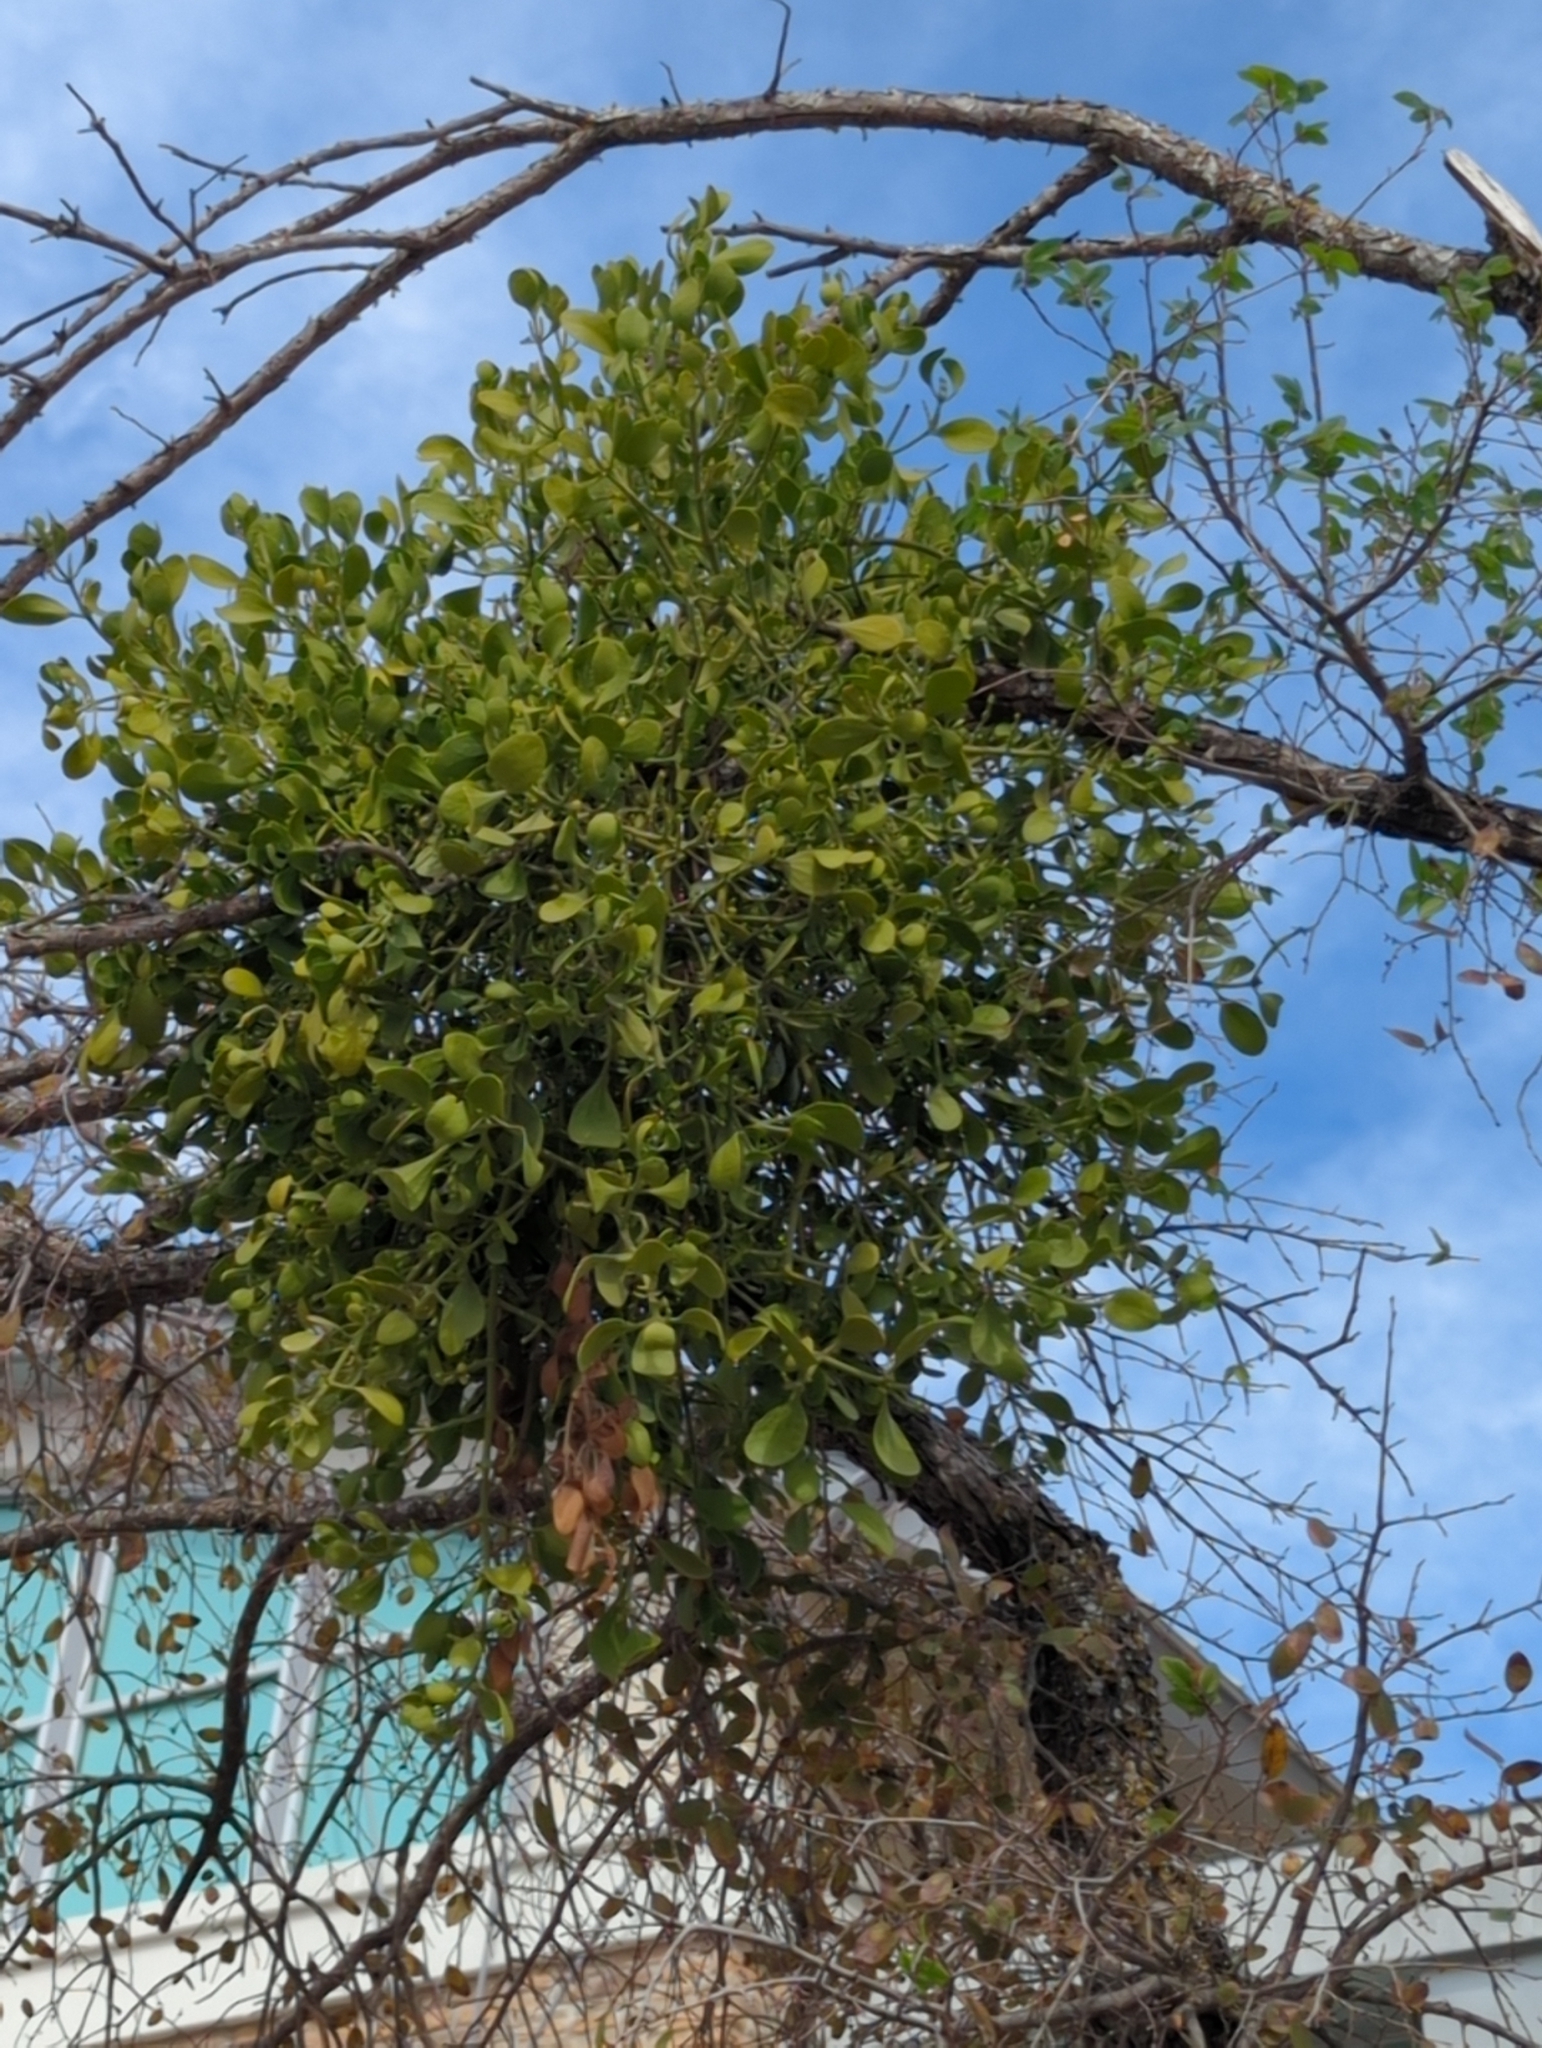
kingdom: Plantae
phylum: Tracheophyta
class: Magnoliopsida
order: Santalales
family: Viscaceae
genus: Phoradendron
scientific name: Phoradendron leucarpum
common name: Pacific mistletoe
